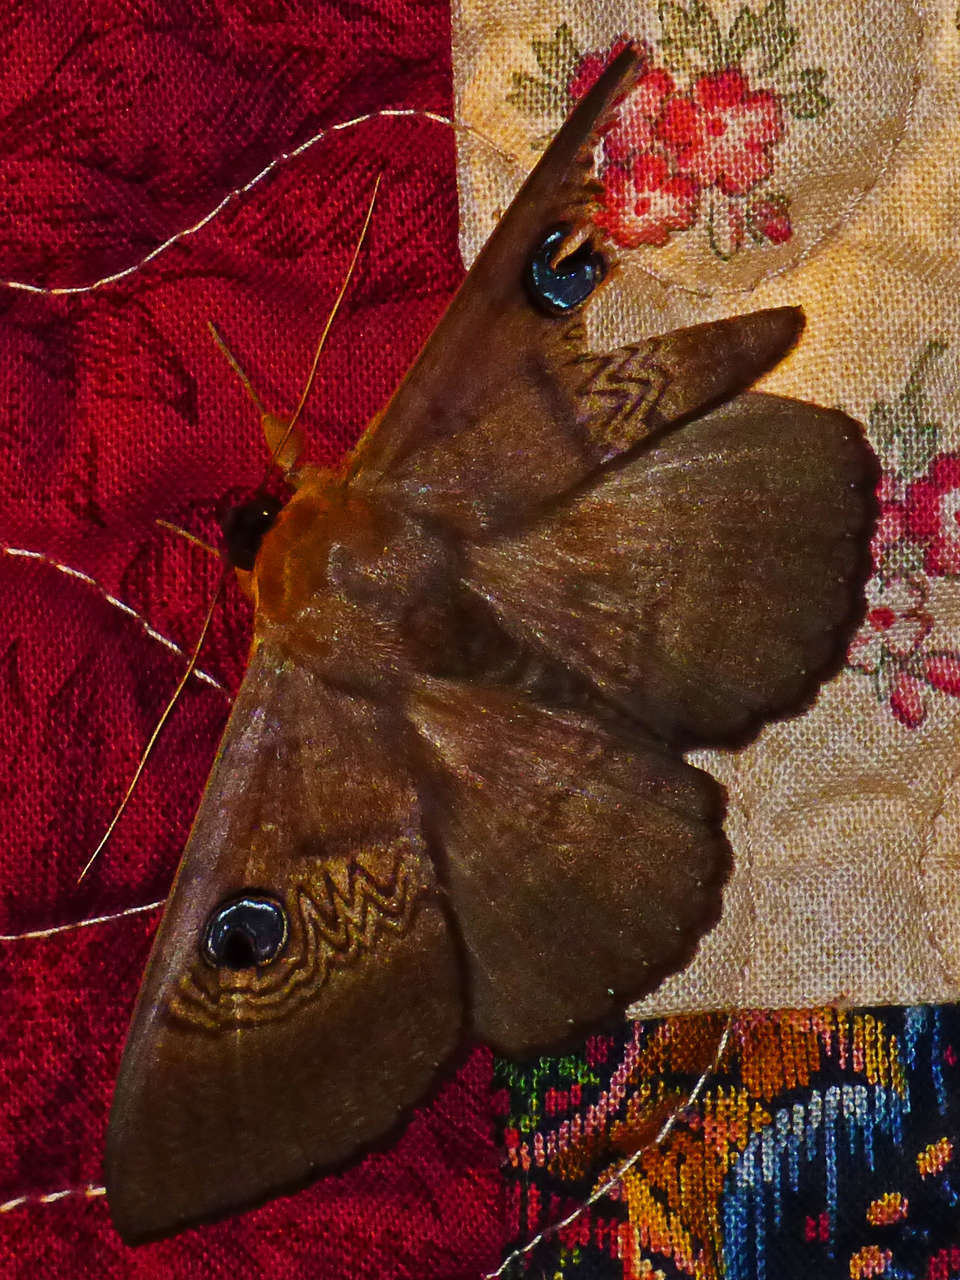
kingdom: Animalia
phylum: Arthropoda
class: Insecta
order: Lepidoptera
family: Erebidae
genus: Dasypodia
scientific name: Dasypodia selenophora
